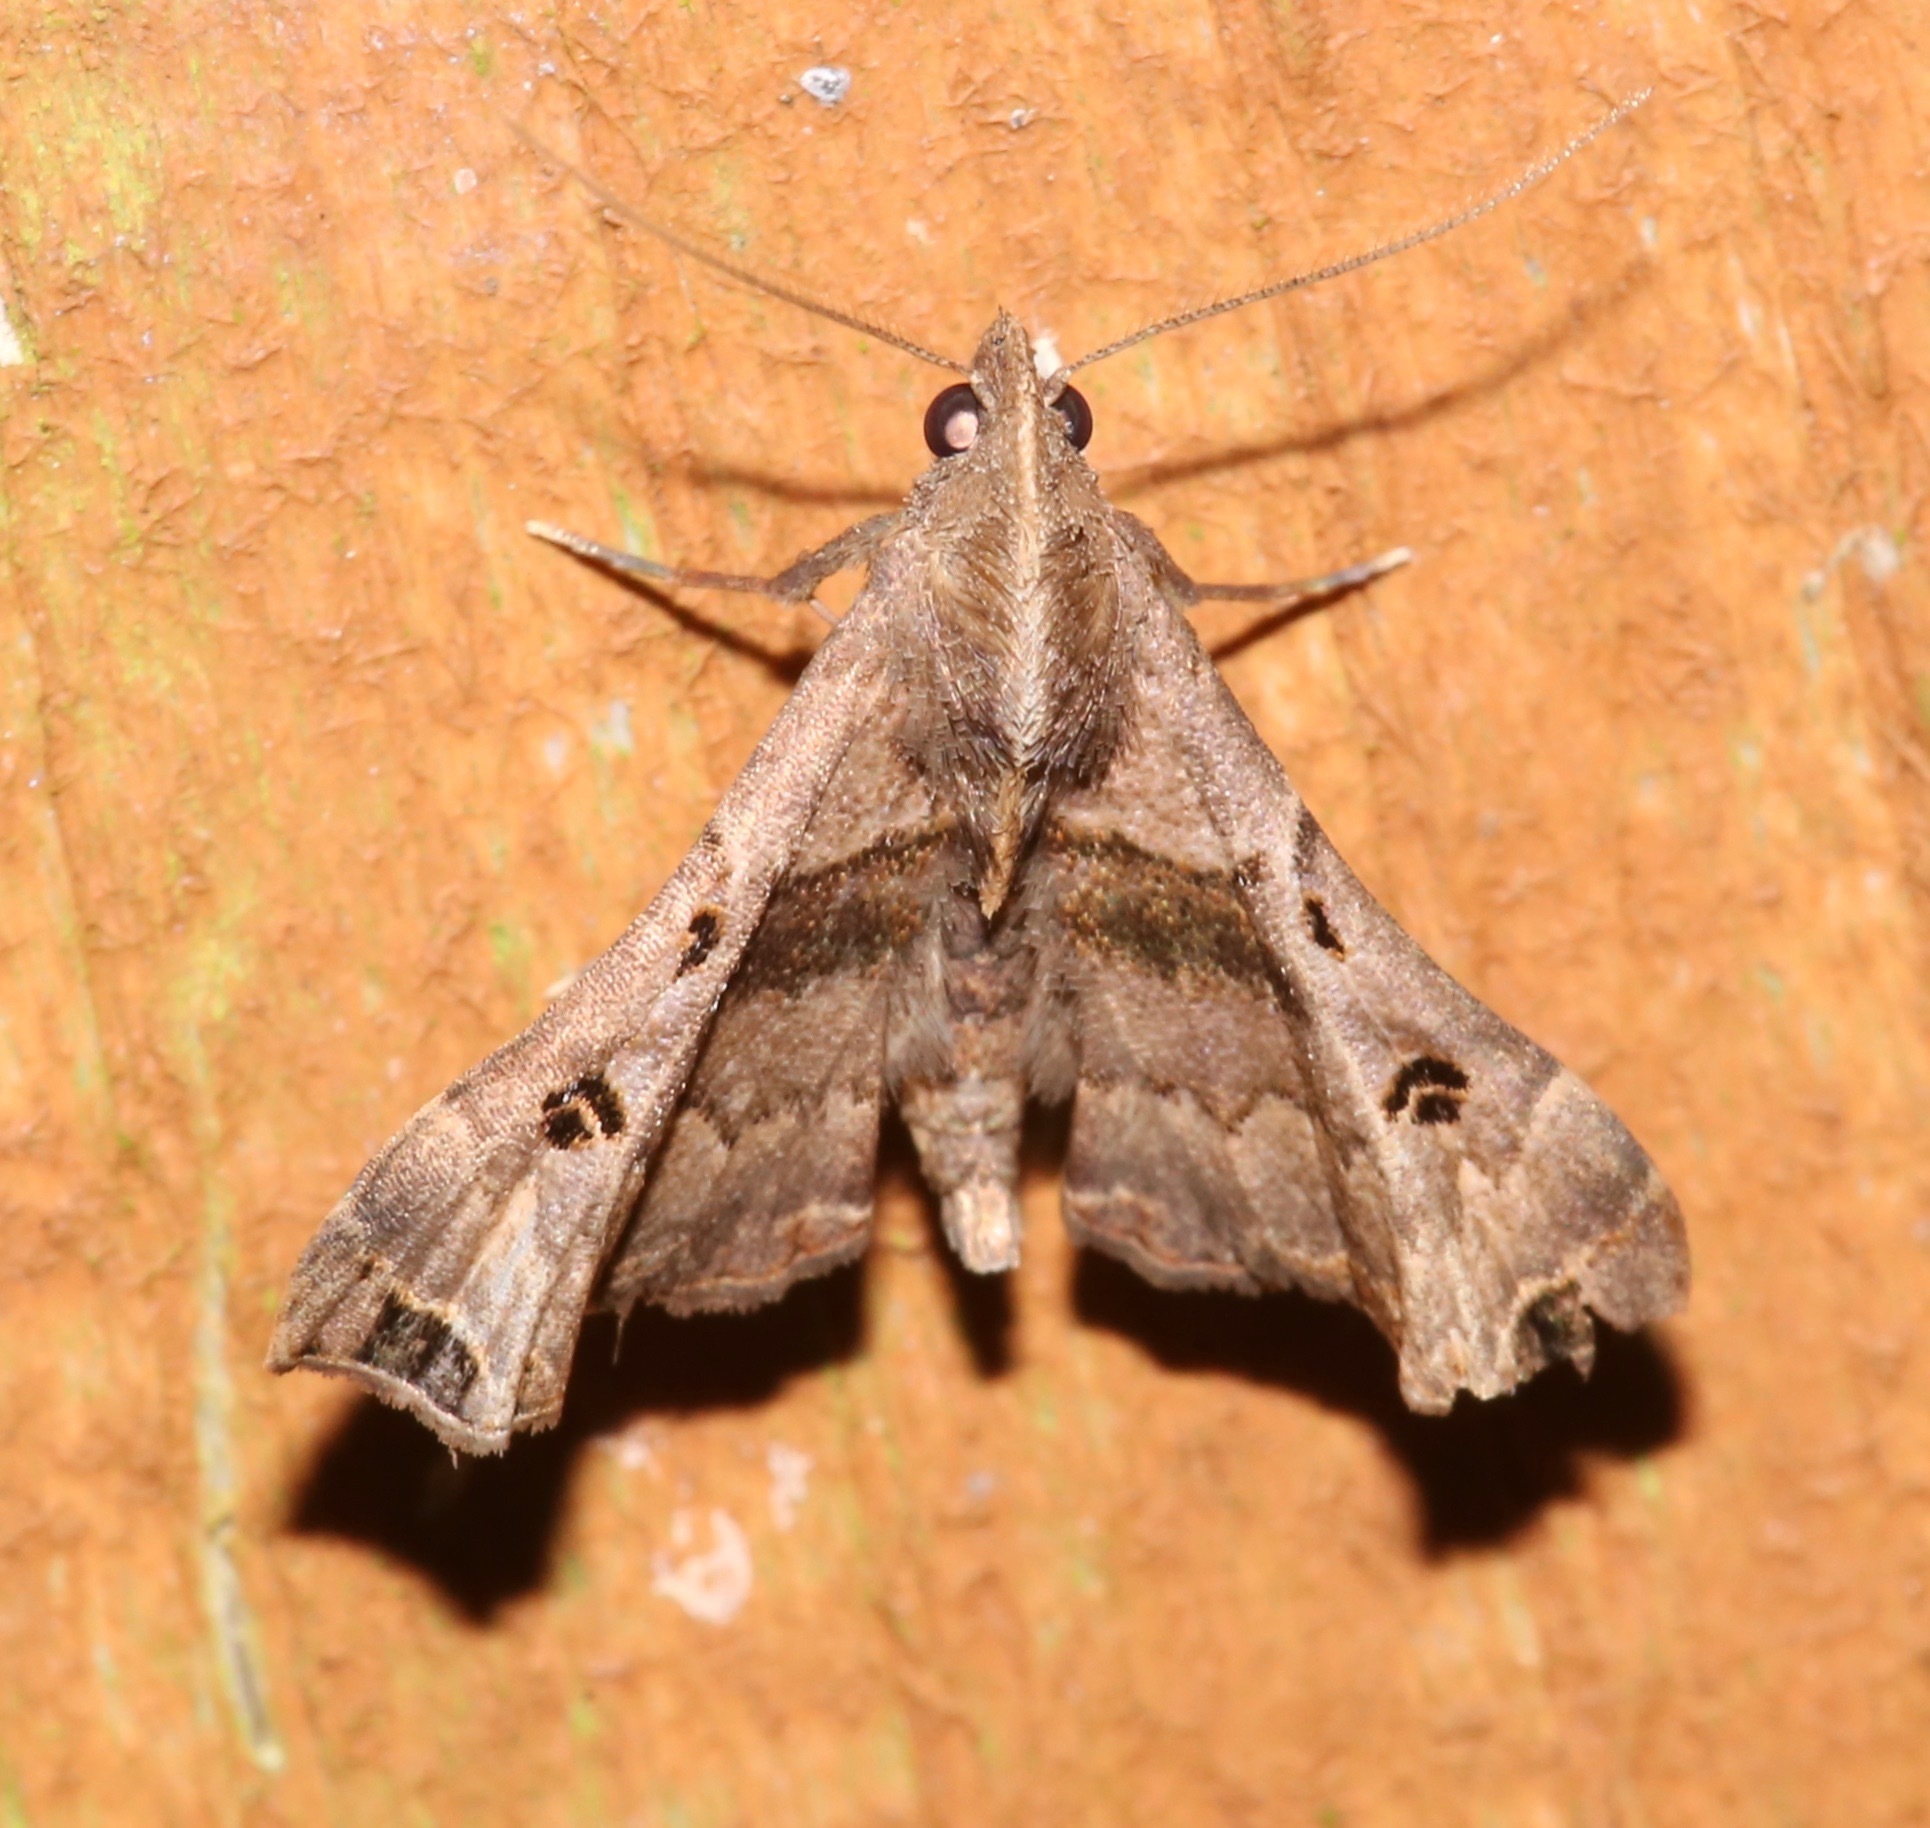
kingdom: Animalia
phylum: Arthropoda
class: Insecta
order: Lepidoptera
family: Erebidae
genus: Palthis
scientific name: Palthis asopialis
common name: Faint-spotted palthis moth
